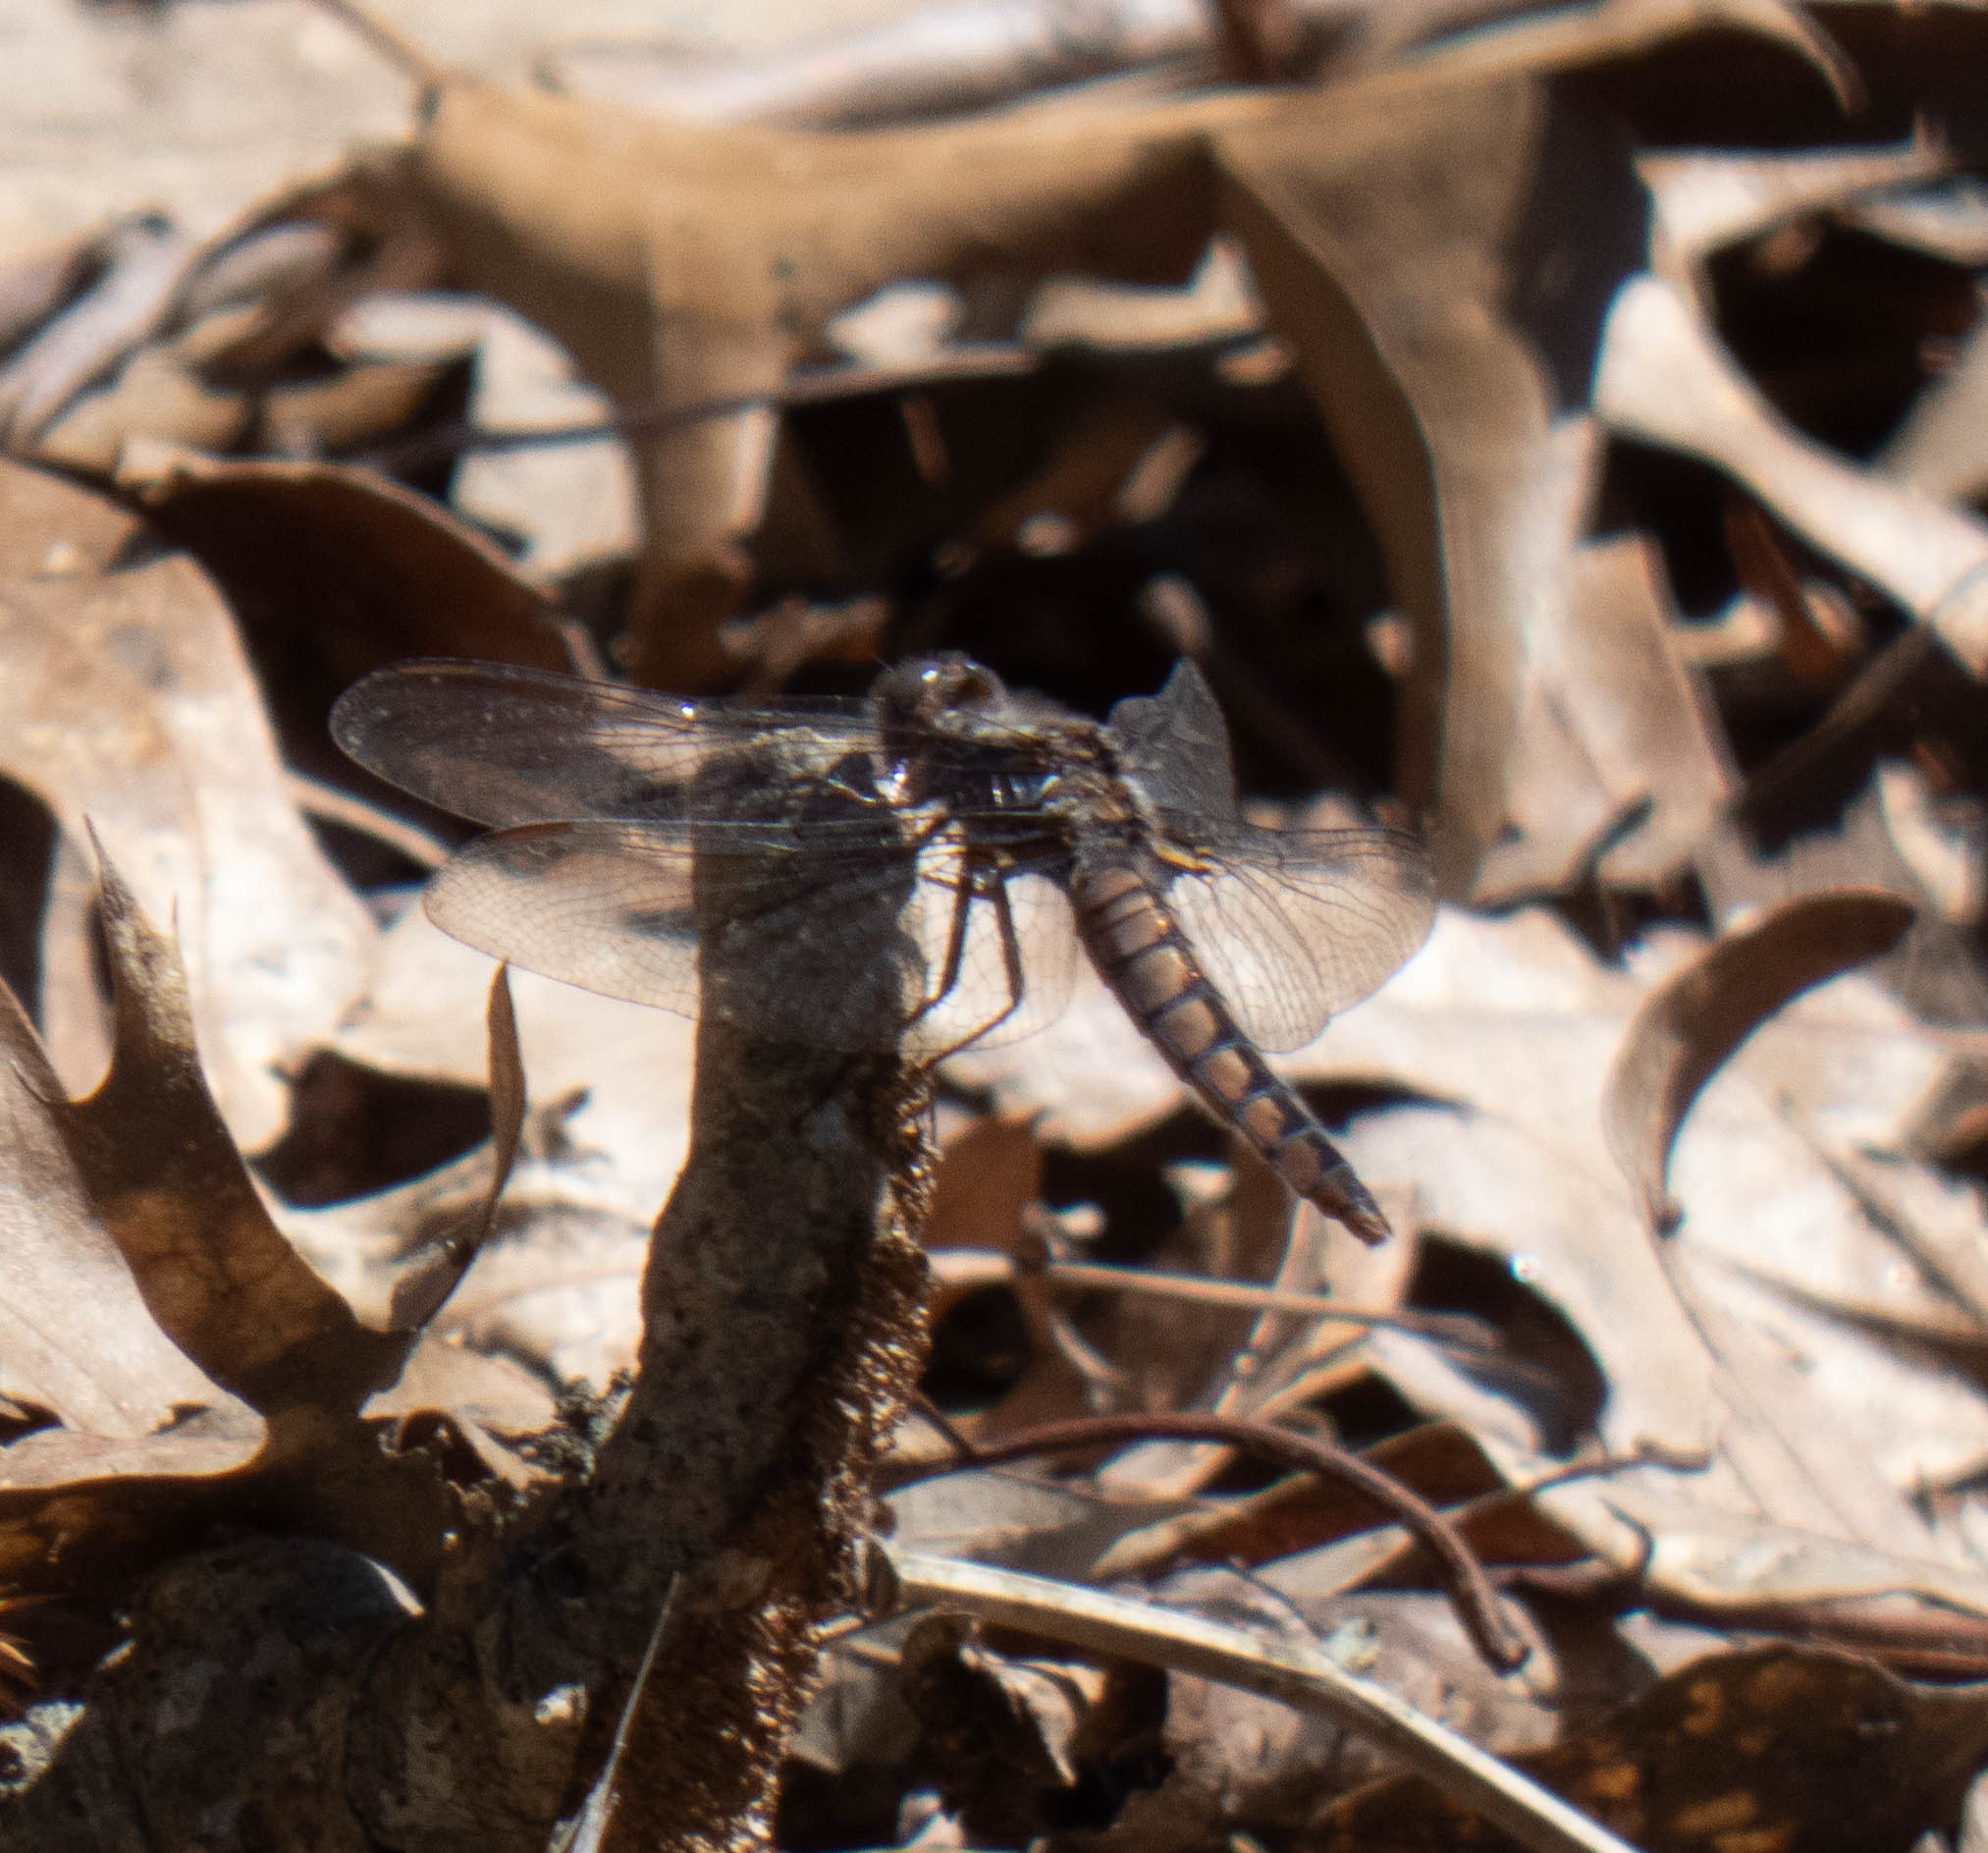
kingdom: Animalia
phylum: Arthropoda
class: Insecta
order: Odonata
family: Libellulidae
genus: Ladona
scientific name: Ladona deplanata
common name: Blue corporal
